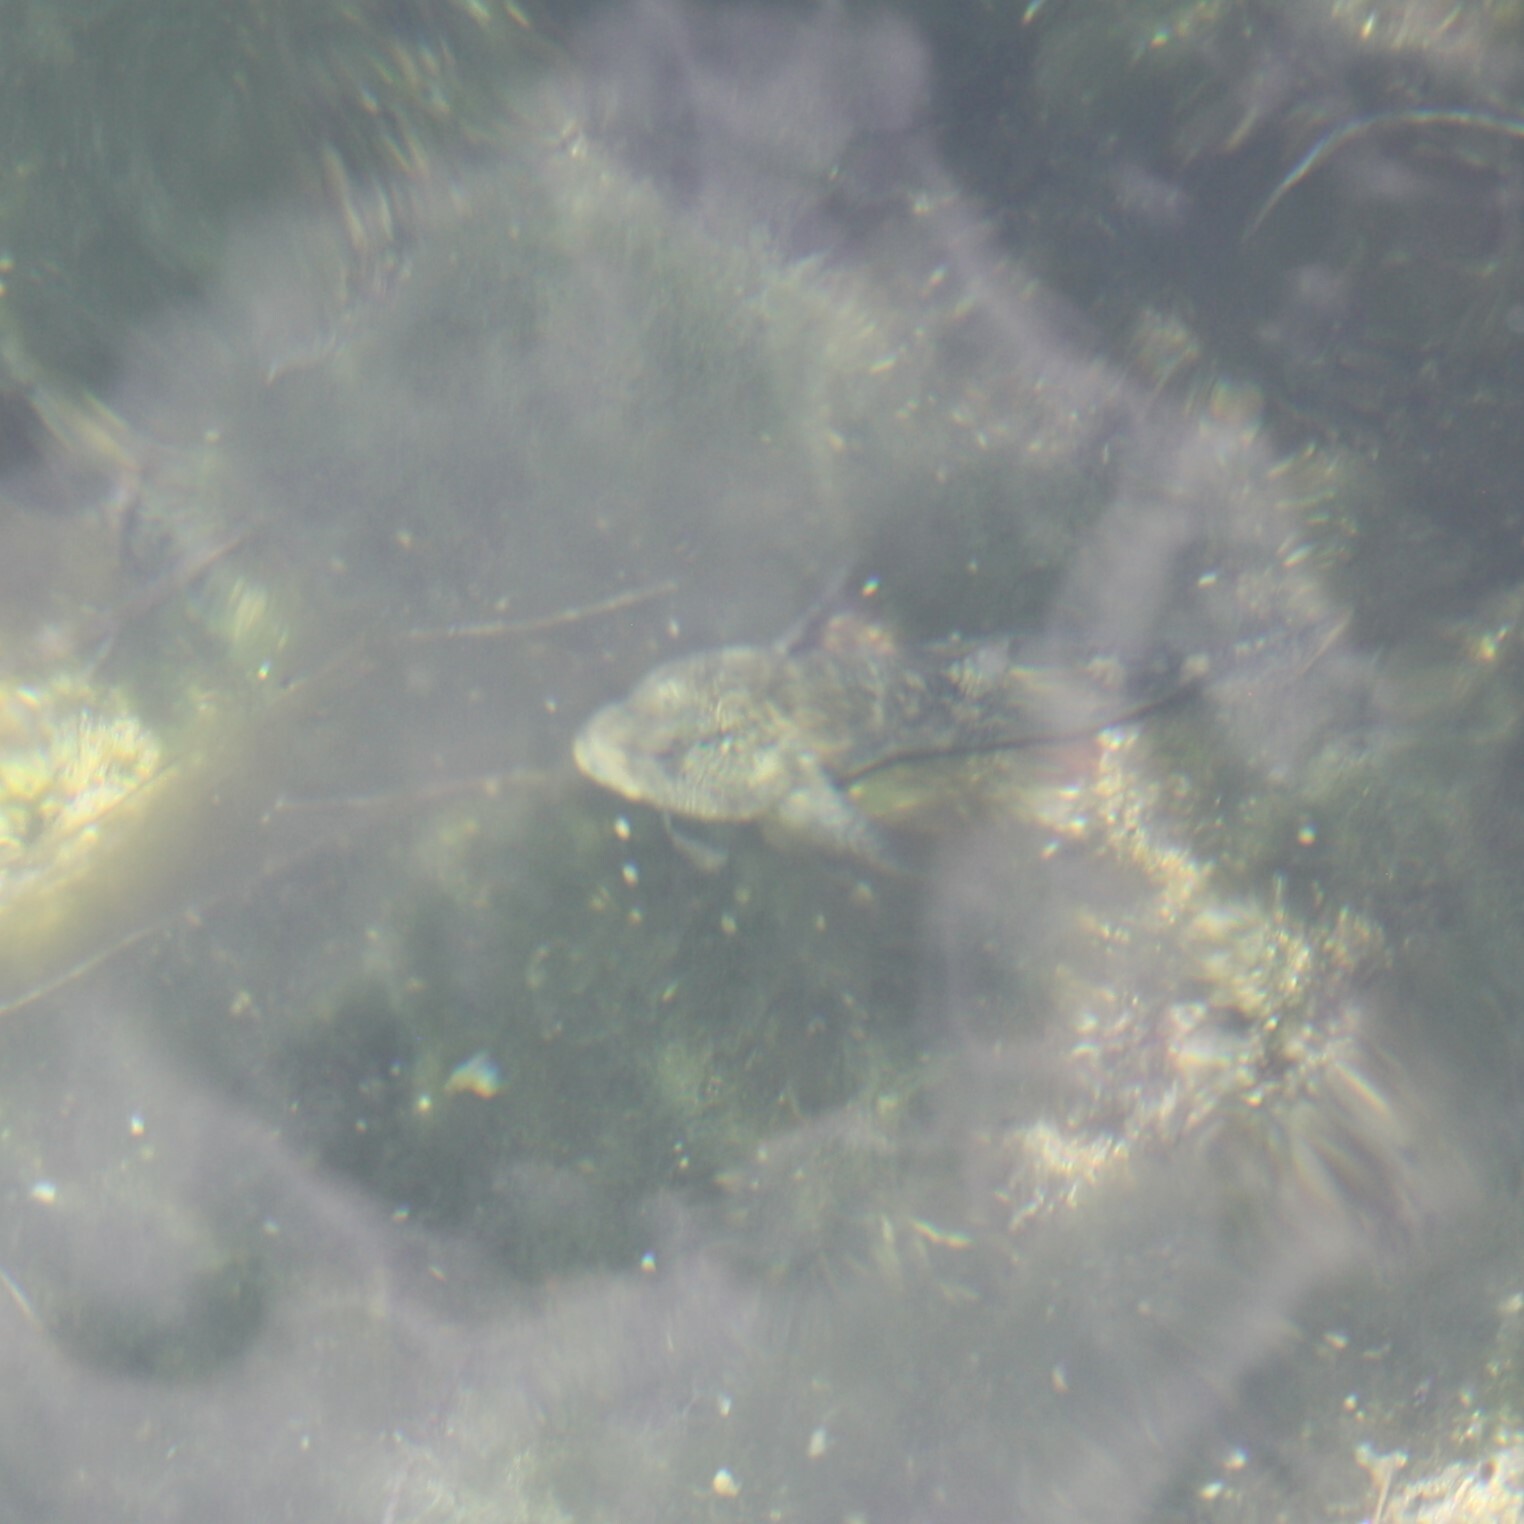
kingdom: Animalia
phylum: Chordata
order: Perciformes
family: Gobiidae
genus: Gobius
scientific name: Gobius
